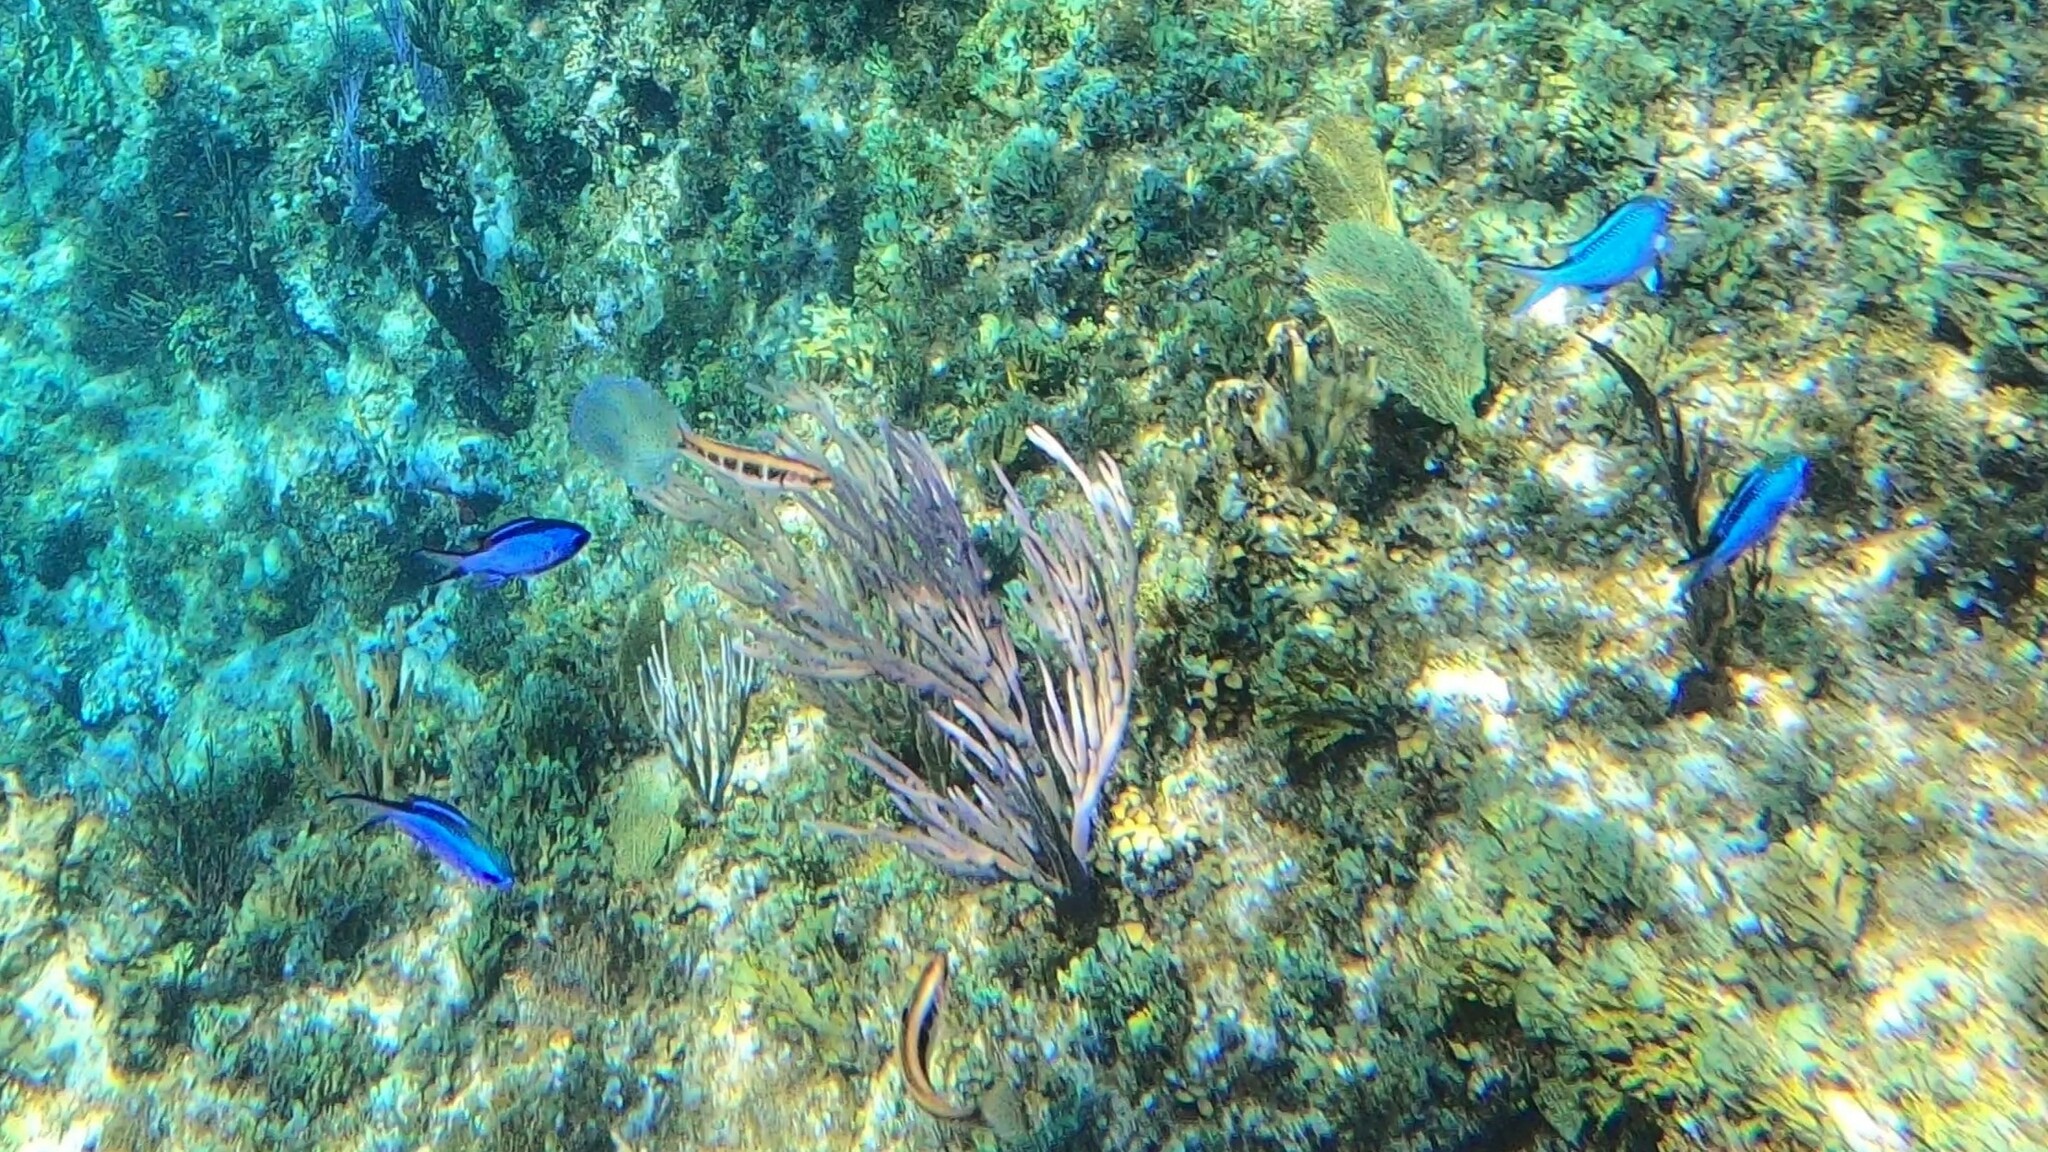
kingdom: Animalia
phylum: Chordata
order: Perciformes
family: Pomacentridae
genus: Chromis
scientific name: Chromis cyanea
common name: Blue chromis
